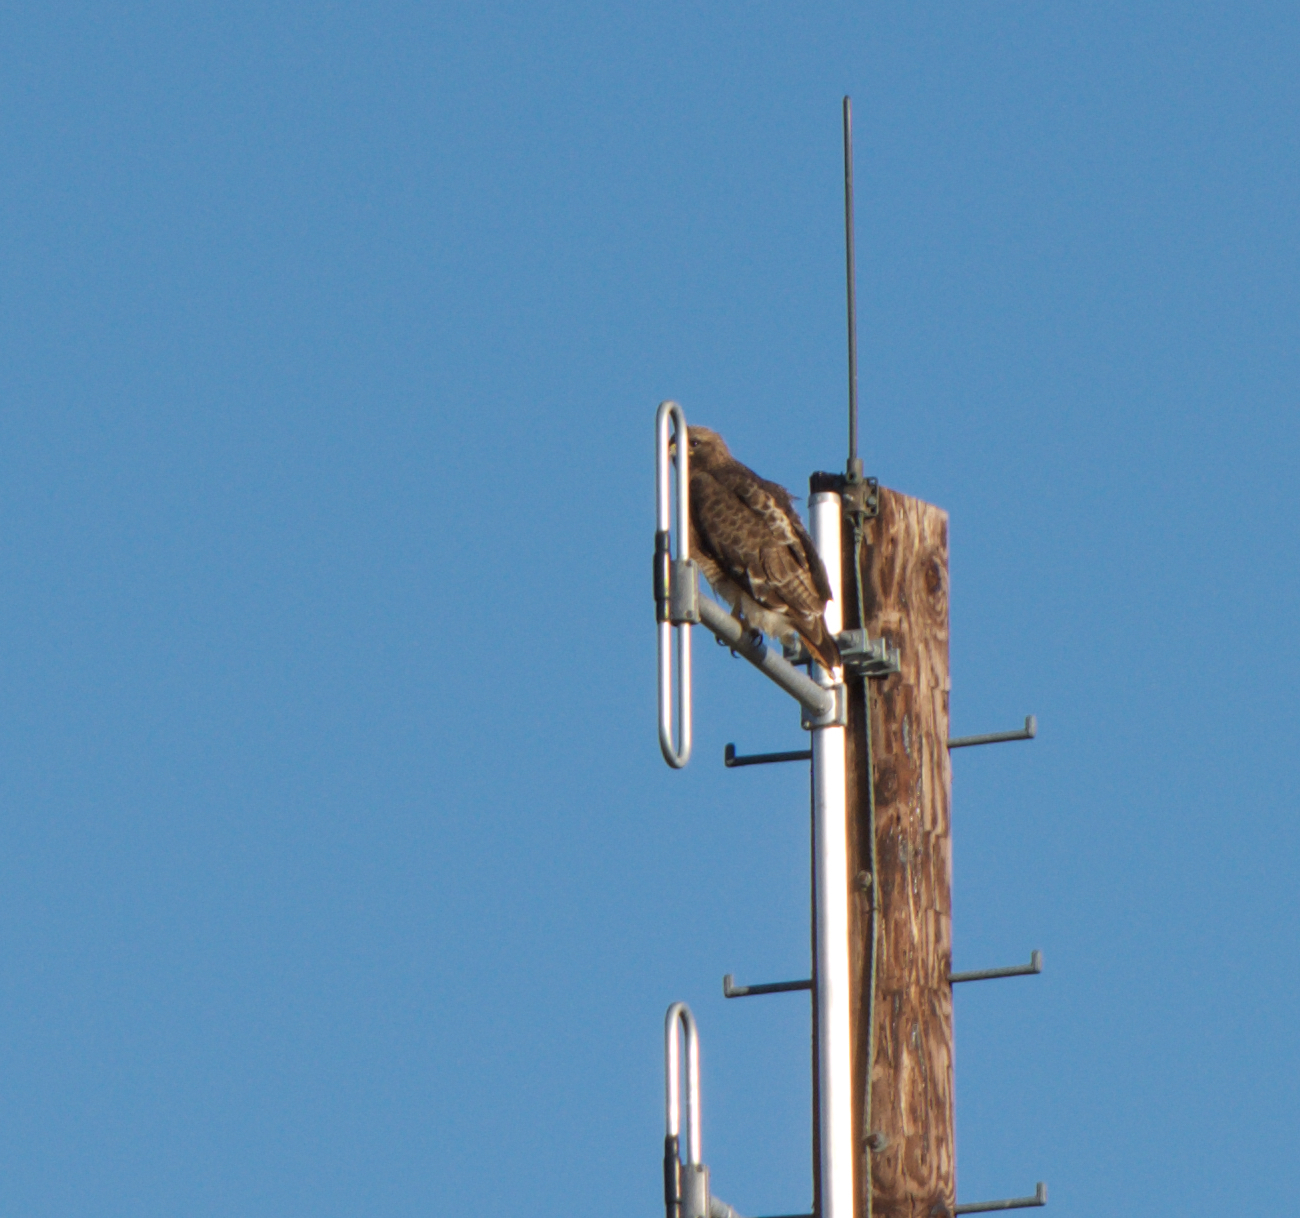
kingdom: Animalia
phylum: Chordata
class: Aves
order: Accipitriformes
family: Accipitridae
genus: Buteo
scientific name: Buteo jamaicensis
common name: Red-tailed hawk
